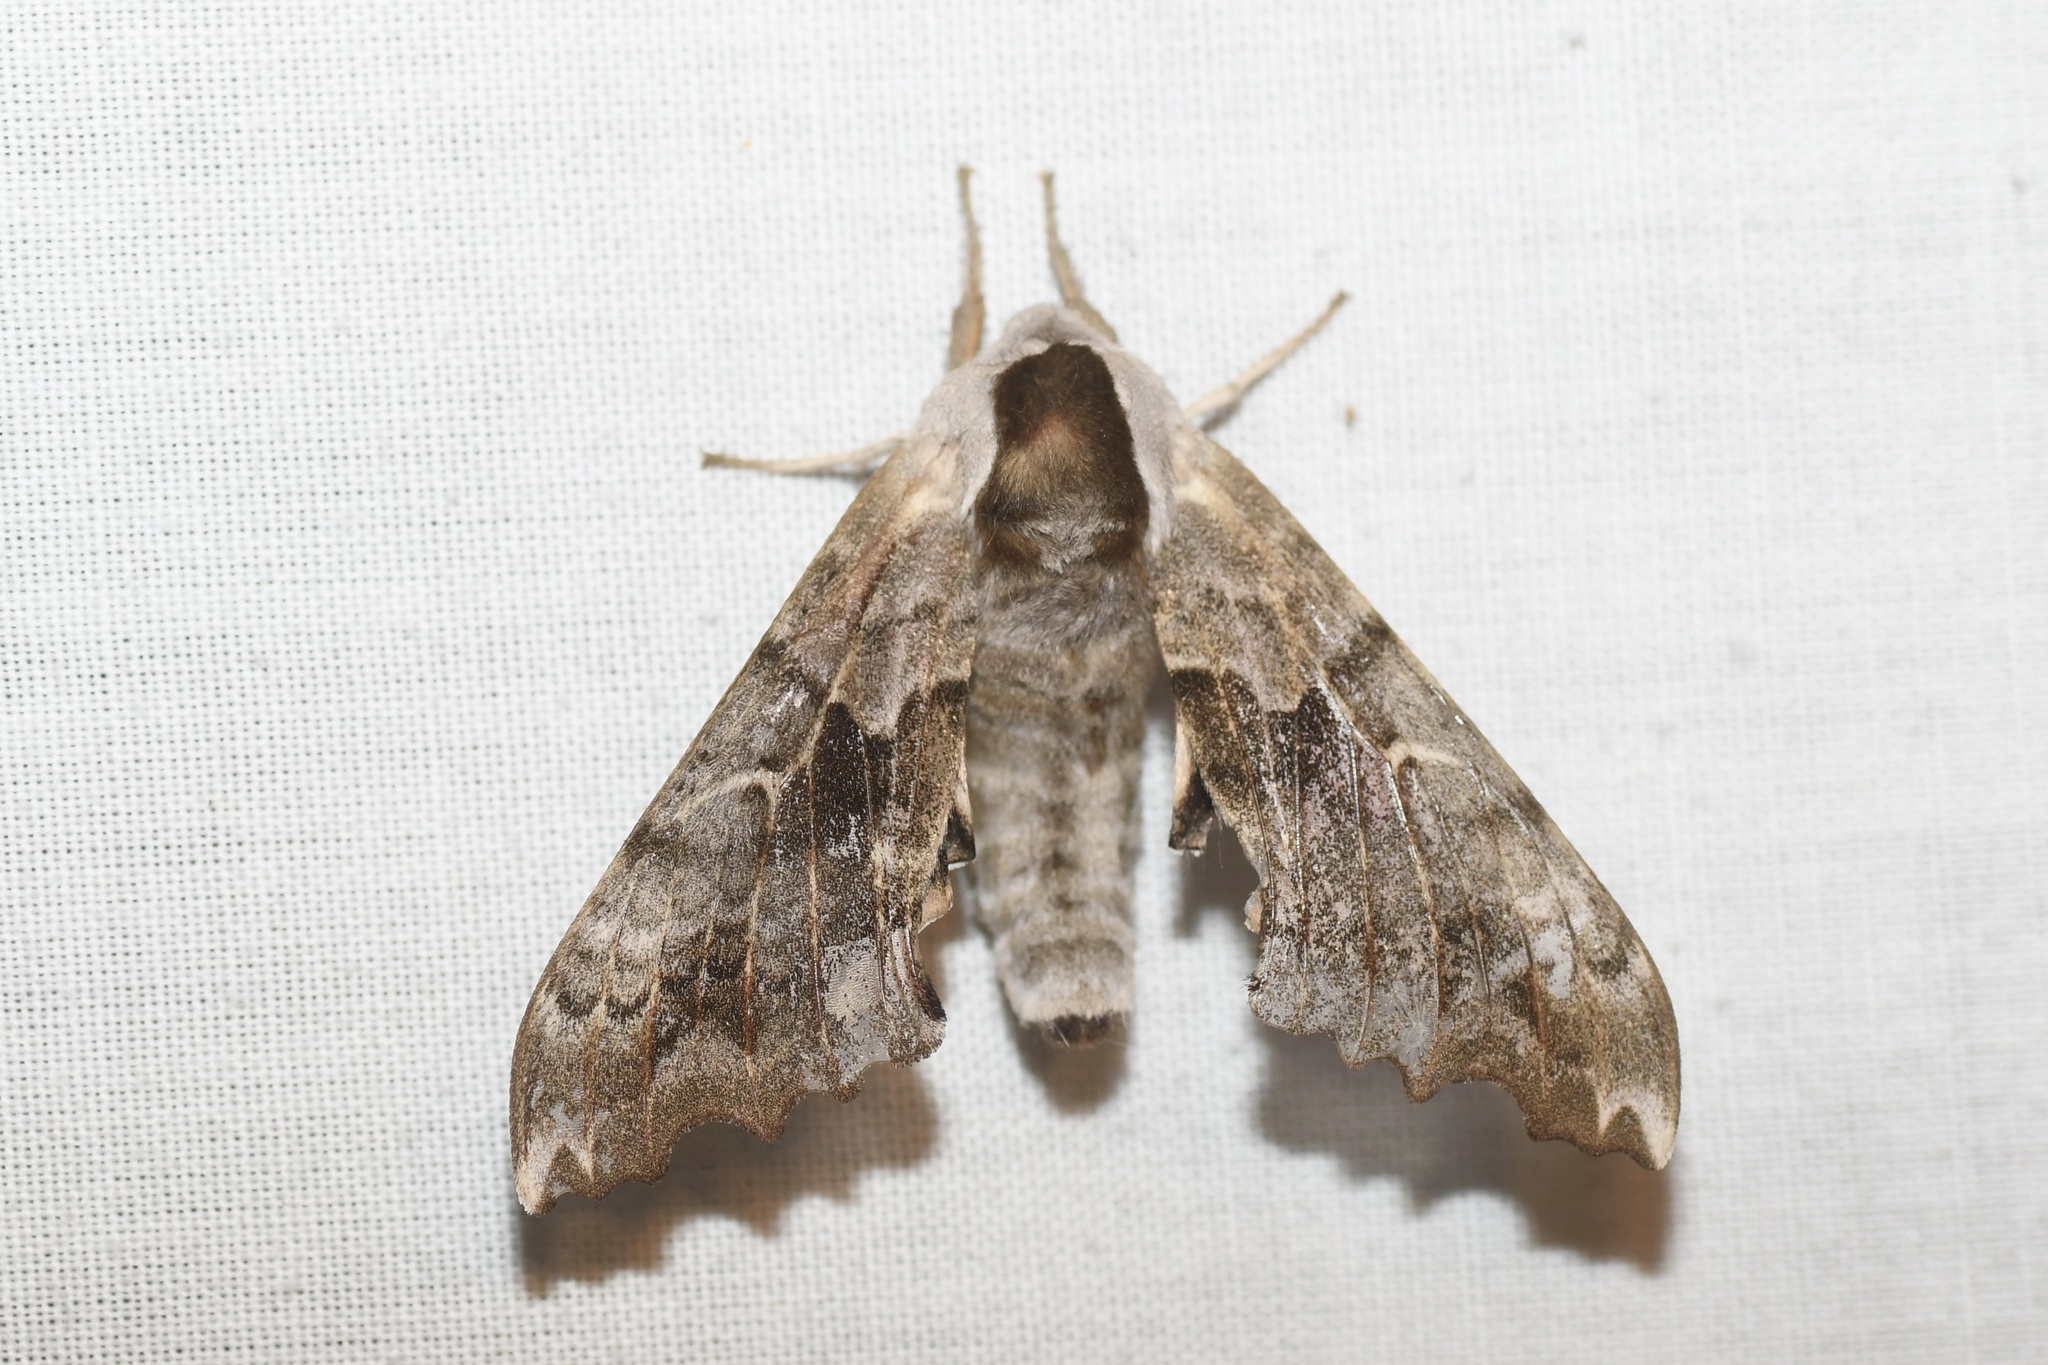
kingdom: Animalia
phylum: Arthropoda
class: Insecta
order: Lepidoptera
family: Sphingidae
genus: Smerinthus
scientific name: Smerinthus cerisyi
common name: Cerisy's sphinx moth
